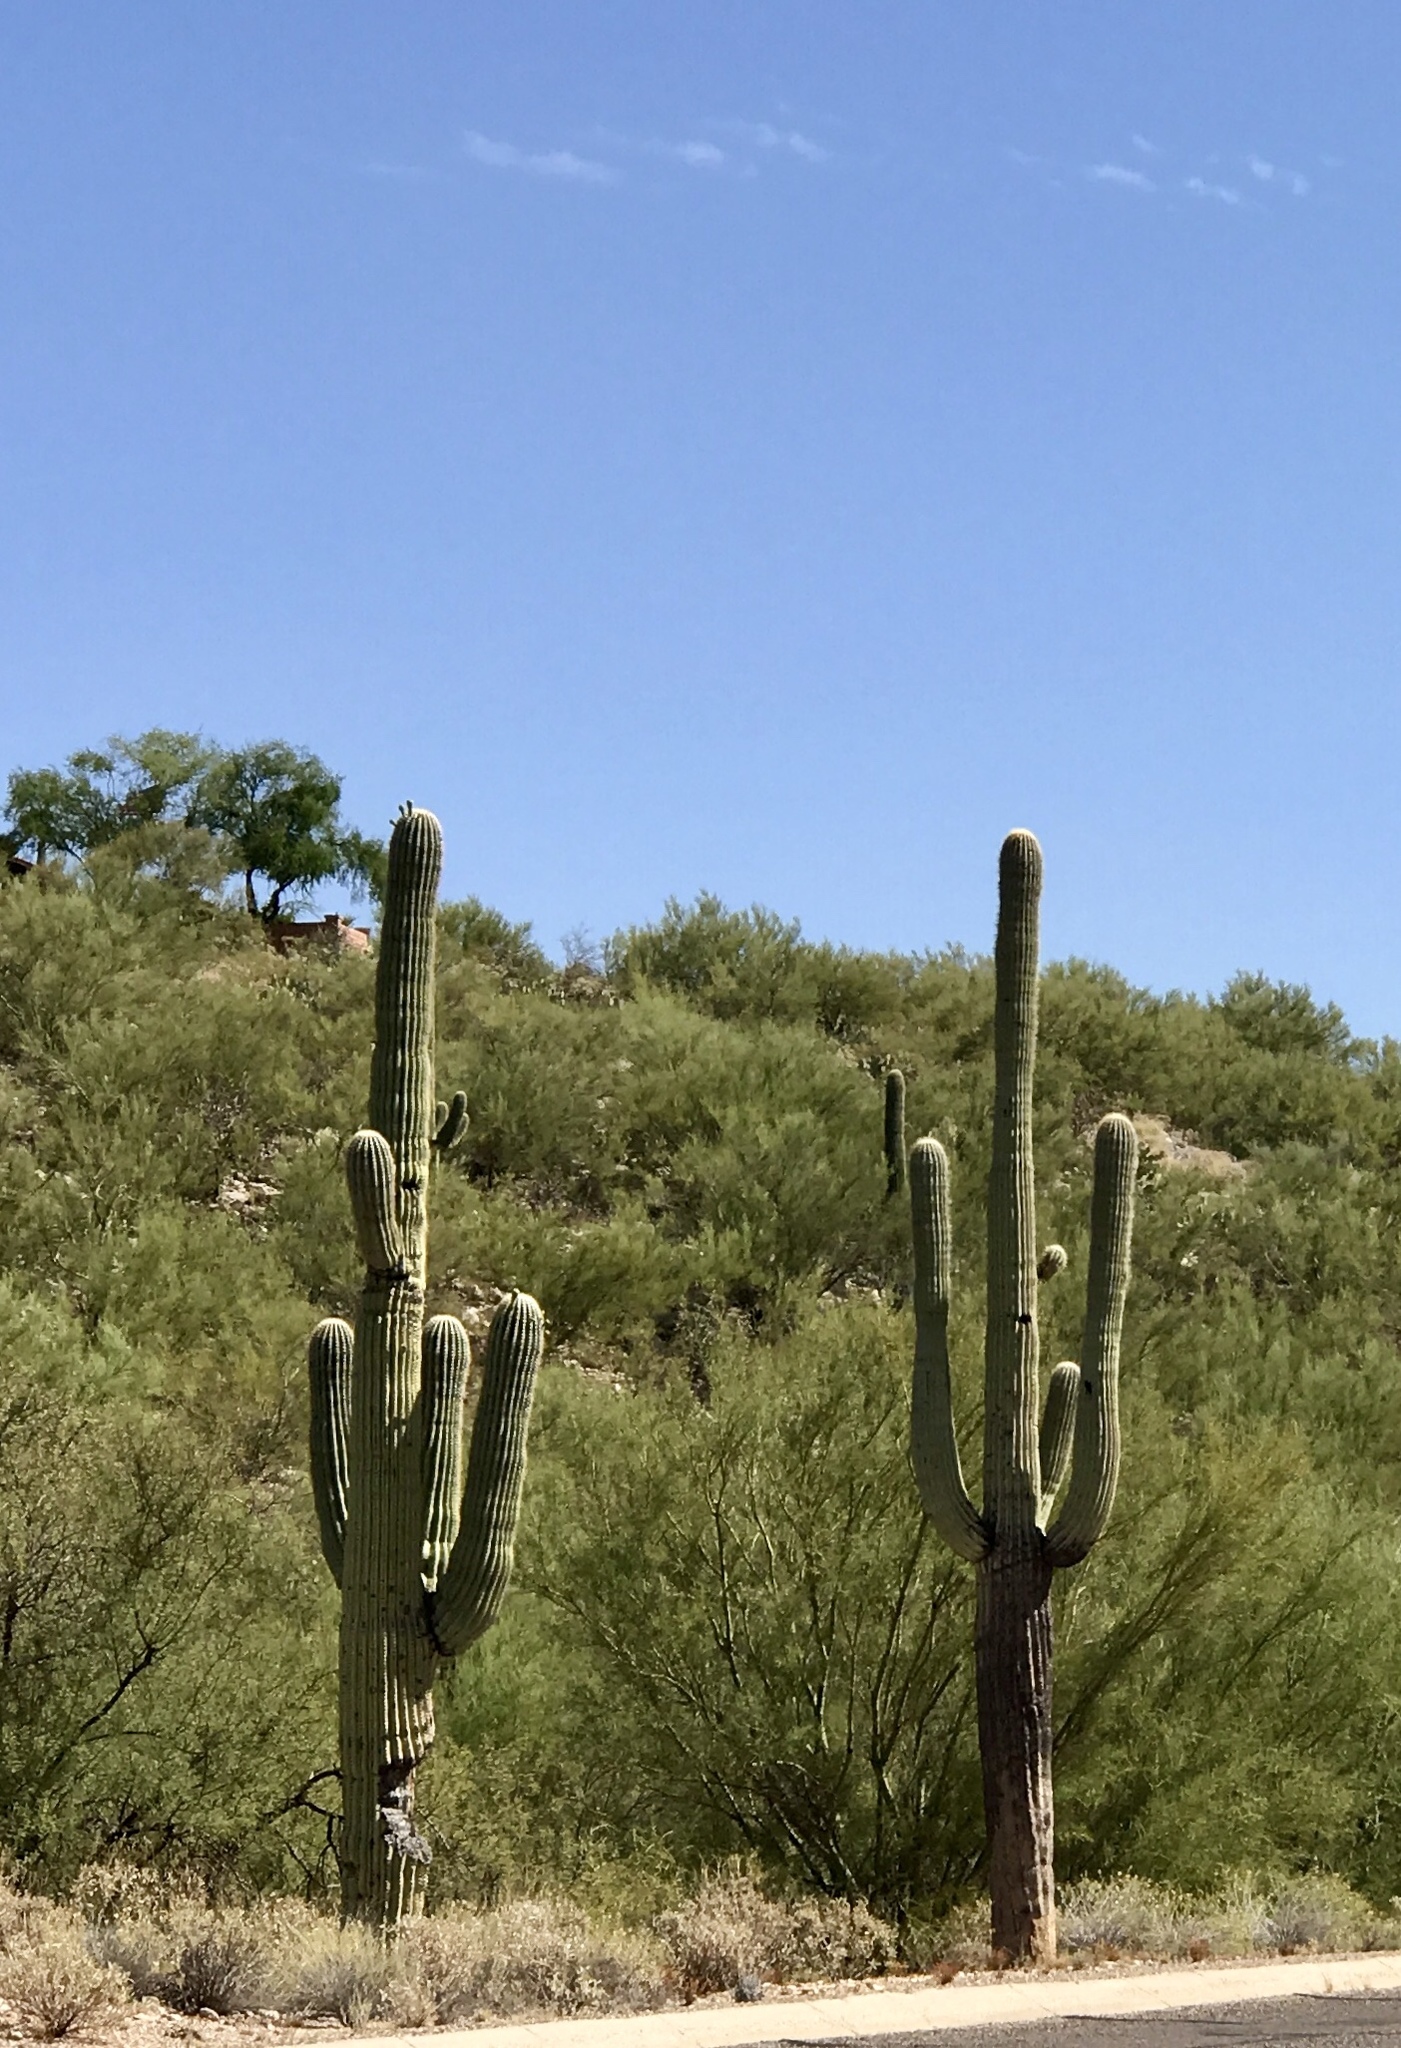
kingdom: Plantae
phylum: Tracheophyta
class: Magnoliopsida
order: Caryophyllales
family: Cactaceae
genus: Carnegiea
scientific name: Carnegiea gigantea
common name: Saguaro
